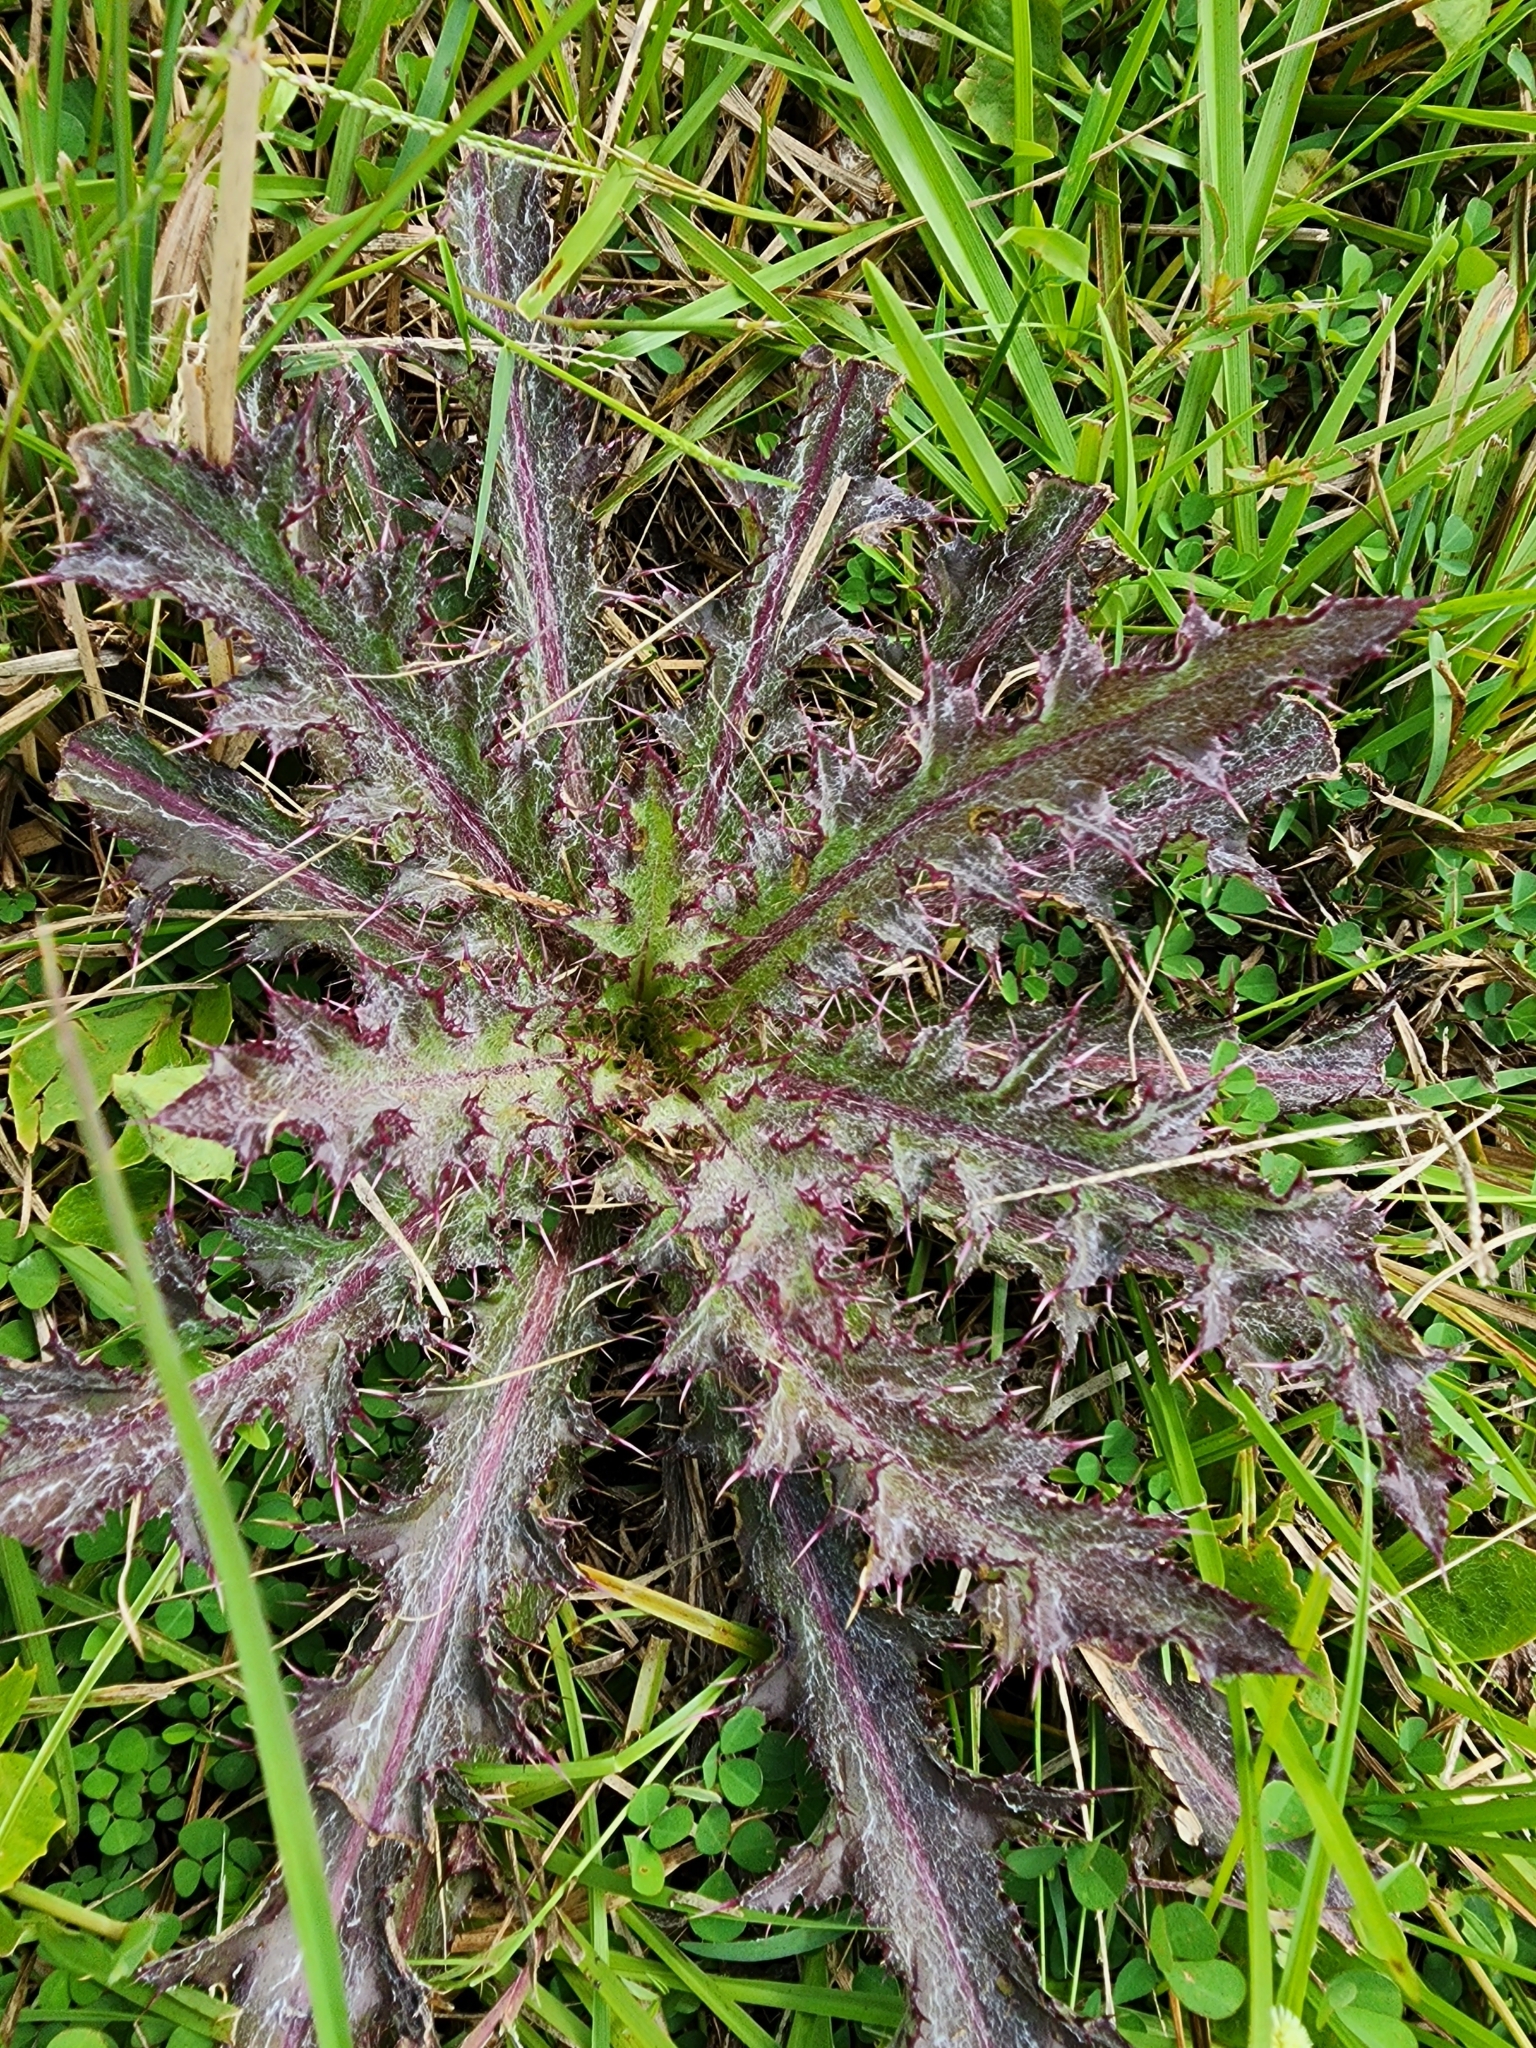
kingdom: Plantae
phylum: Tracheophyta
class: Magnoliopsida
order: Asterales
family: Asteraceae
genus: Cirsium
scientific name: Cirsium horridulum
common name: Bristly thistle
